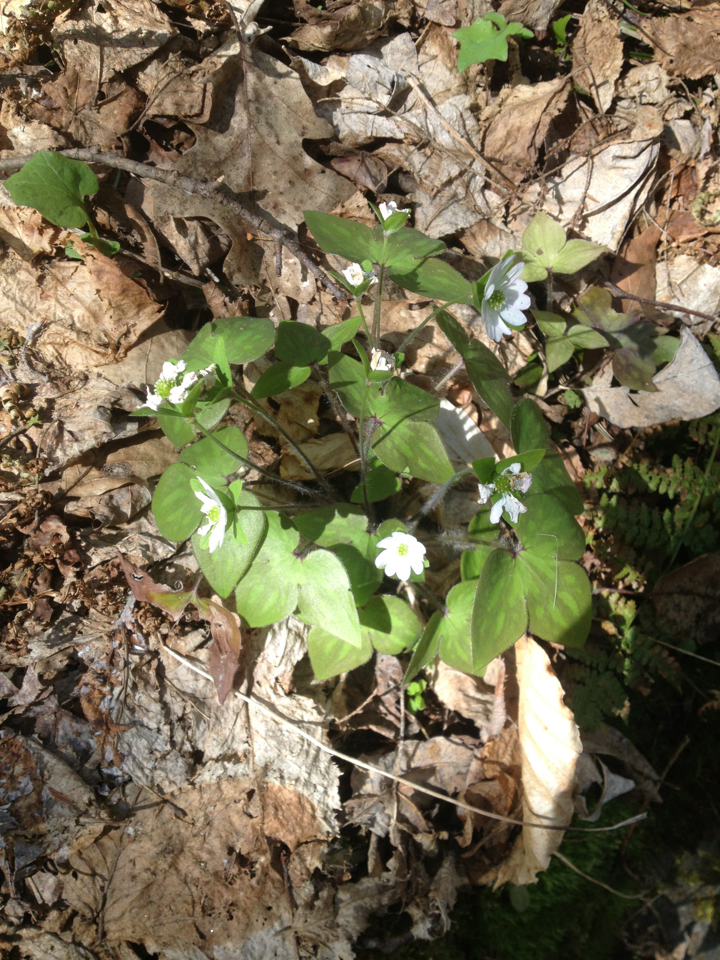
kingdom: Plantae
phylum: Tracheophyta
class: Magnoliopsida
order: Ranunculales
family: Ranunculaceae
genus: Hepatica
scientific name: Hepatica acutiloba
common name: Sharp-lobed hepatica
